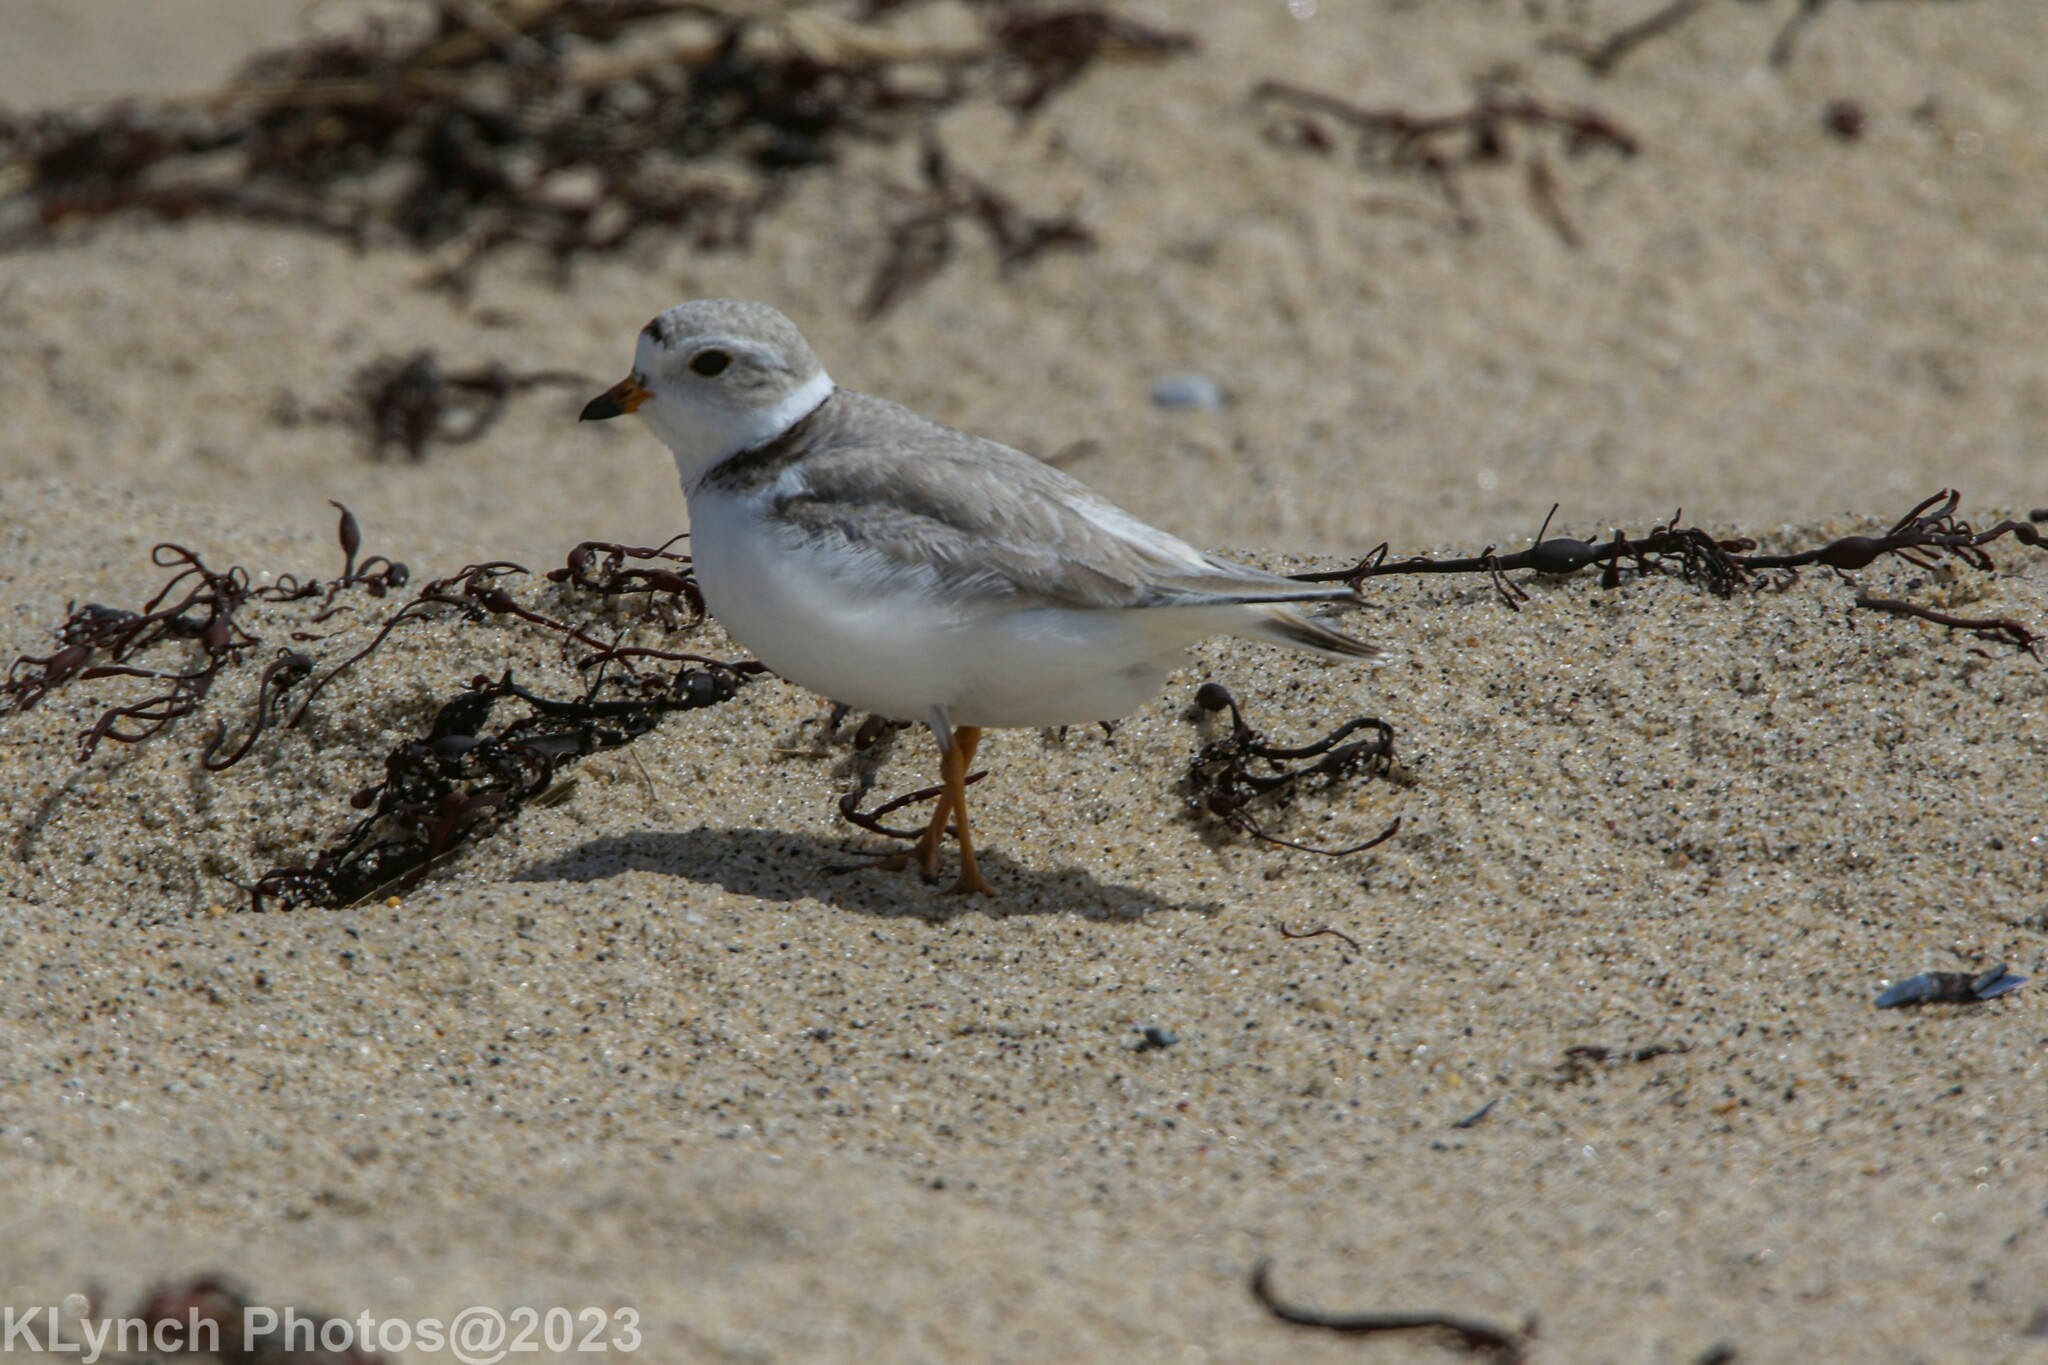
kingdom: Animalia
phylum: Chordata
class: Aves
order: Charadriiformes
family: Charadriidae
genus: Charadrius
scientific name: Charadrius melodus
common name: Piping plover
